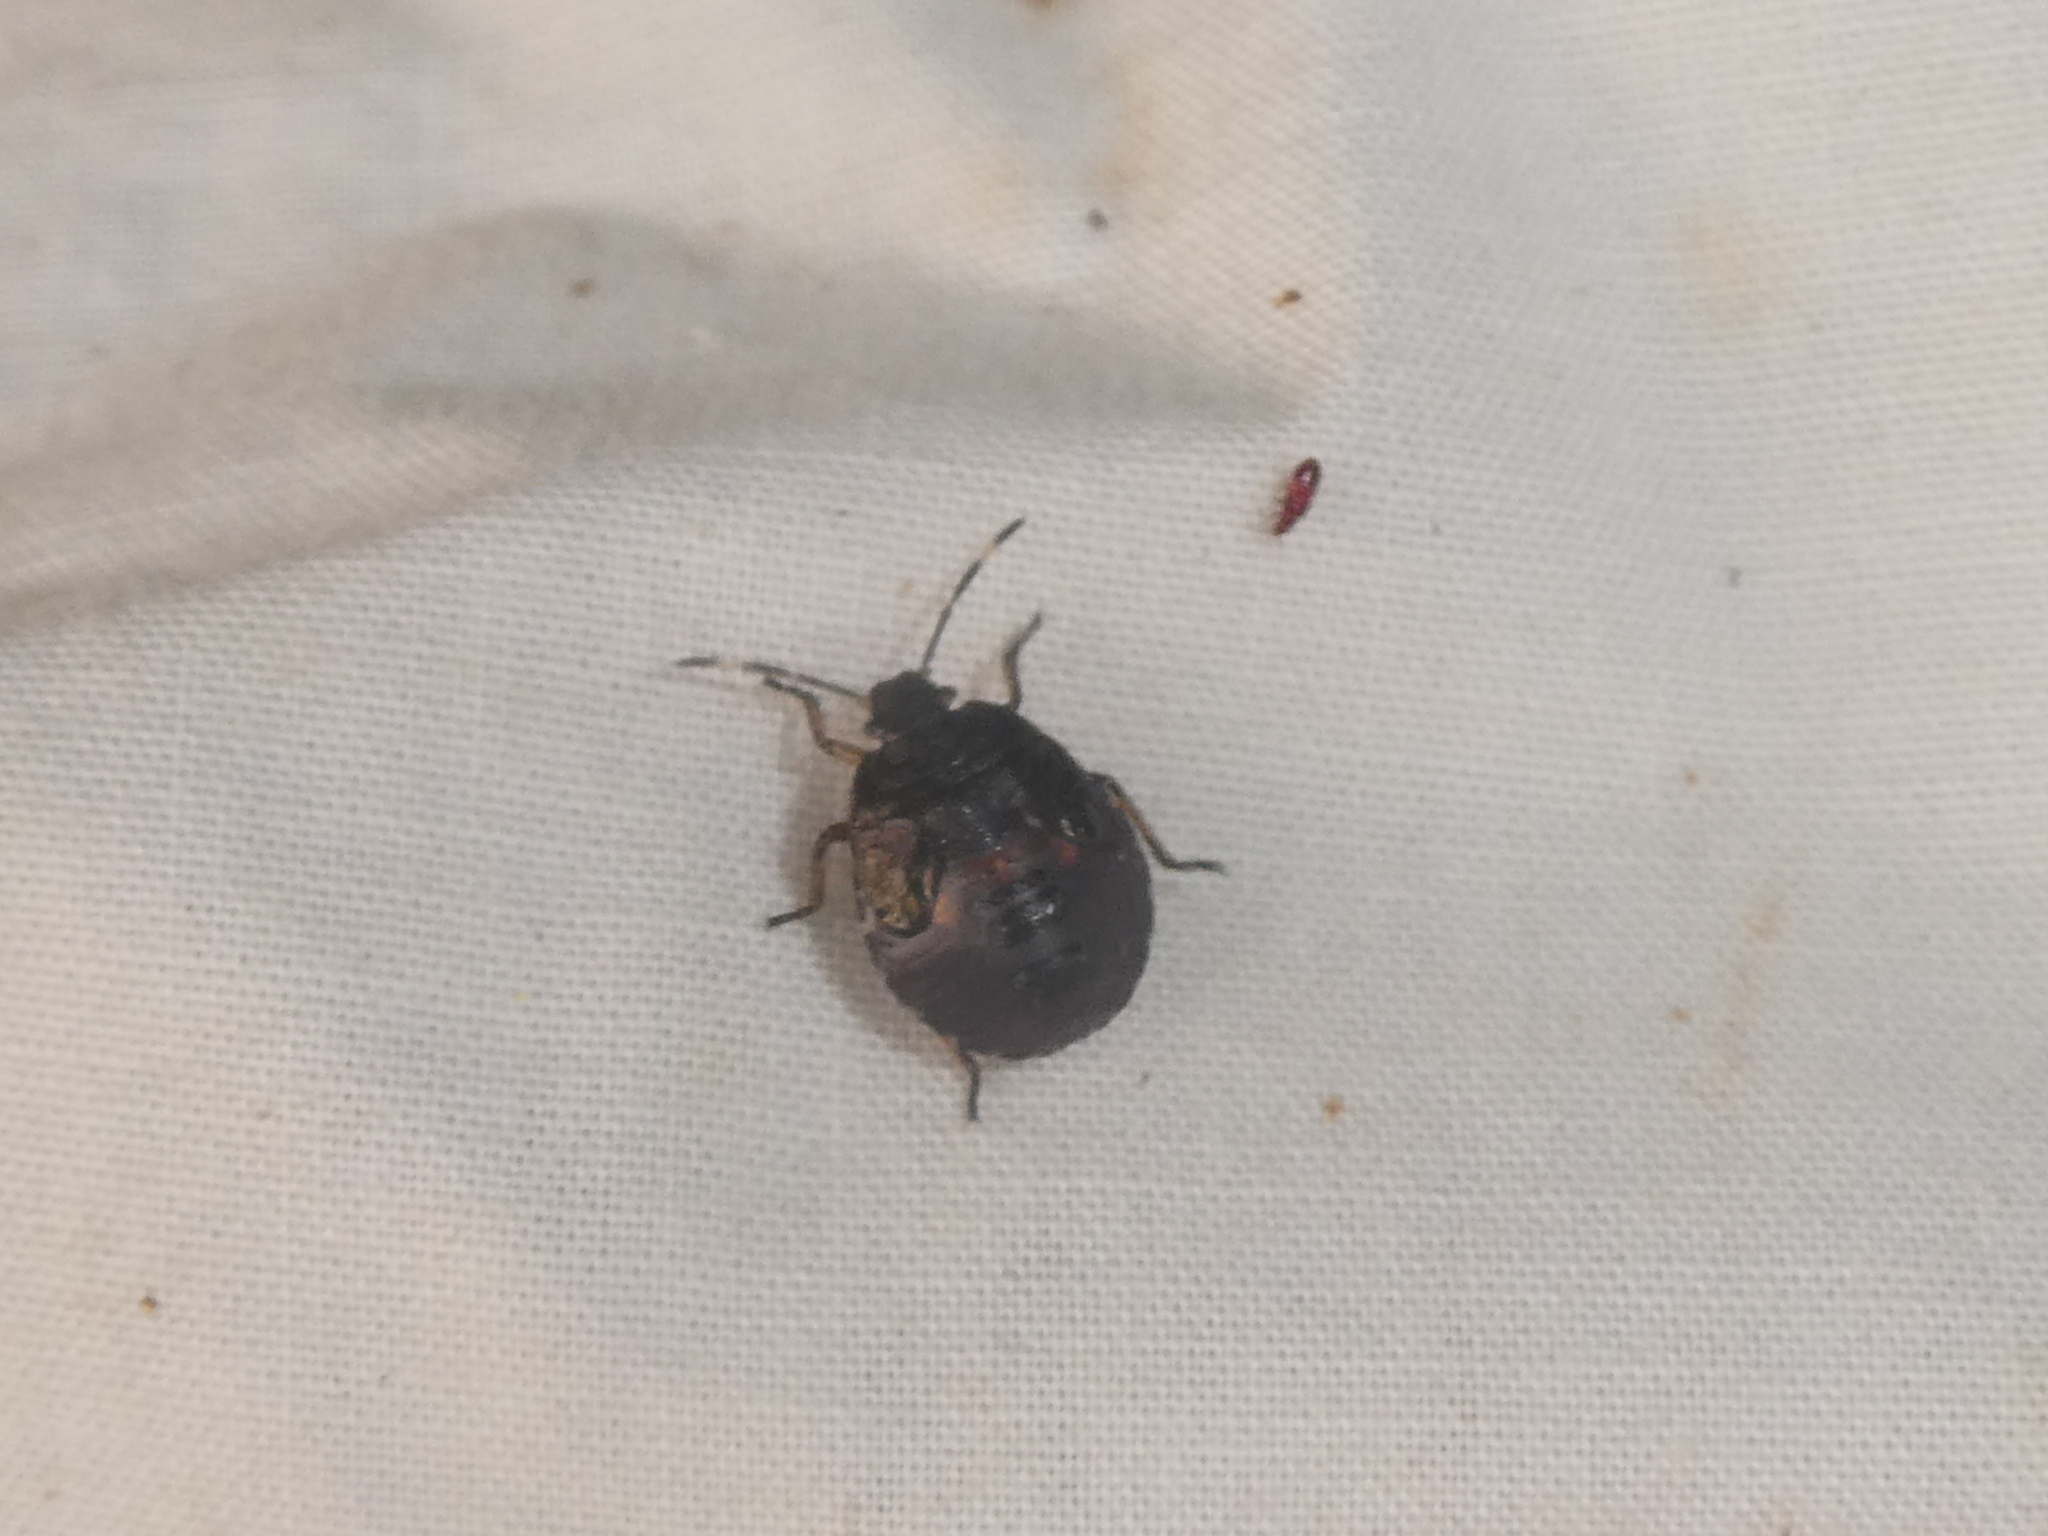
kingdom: Animalia
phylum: Arthropoda
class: Insecta
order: Hemiptera
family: Pentatomidae
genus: Monteithiella
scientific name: Monteithiella
